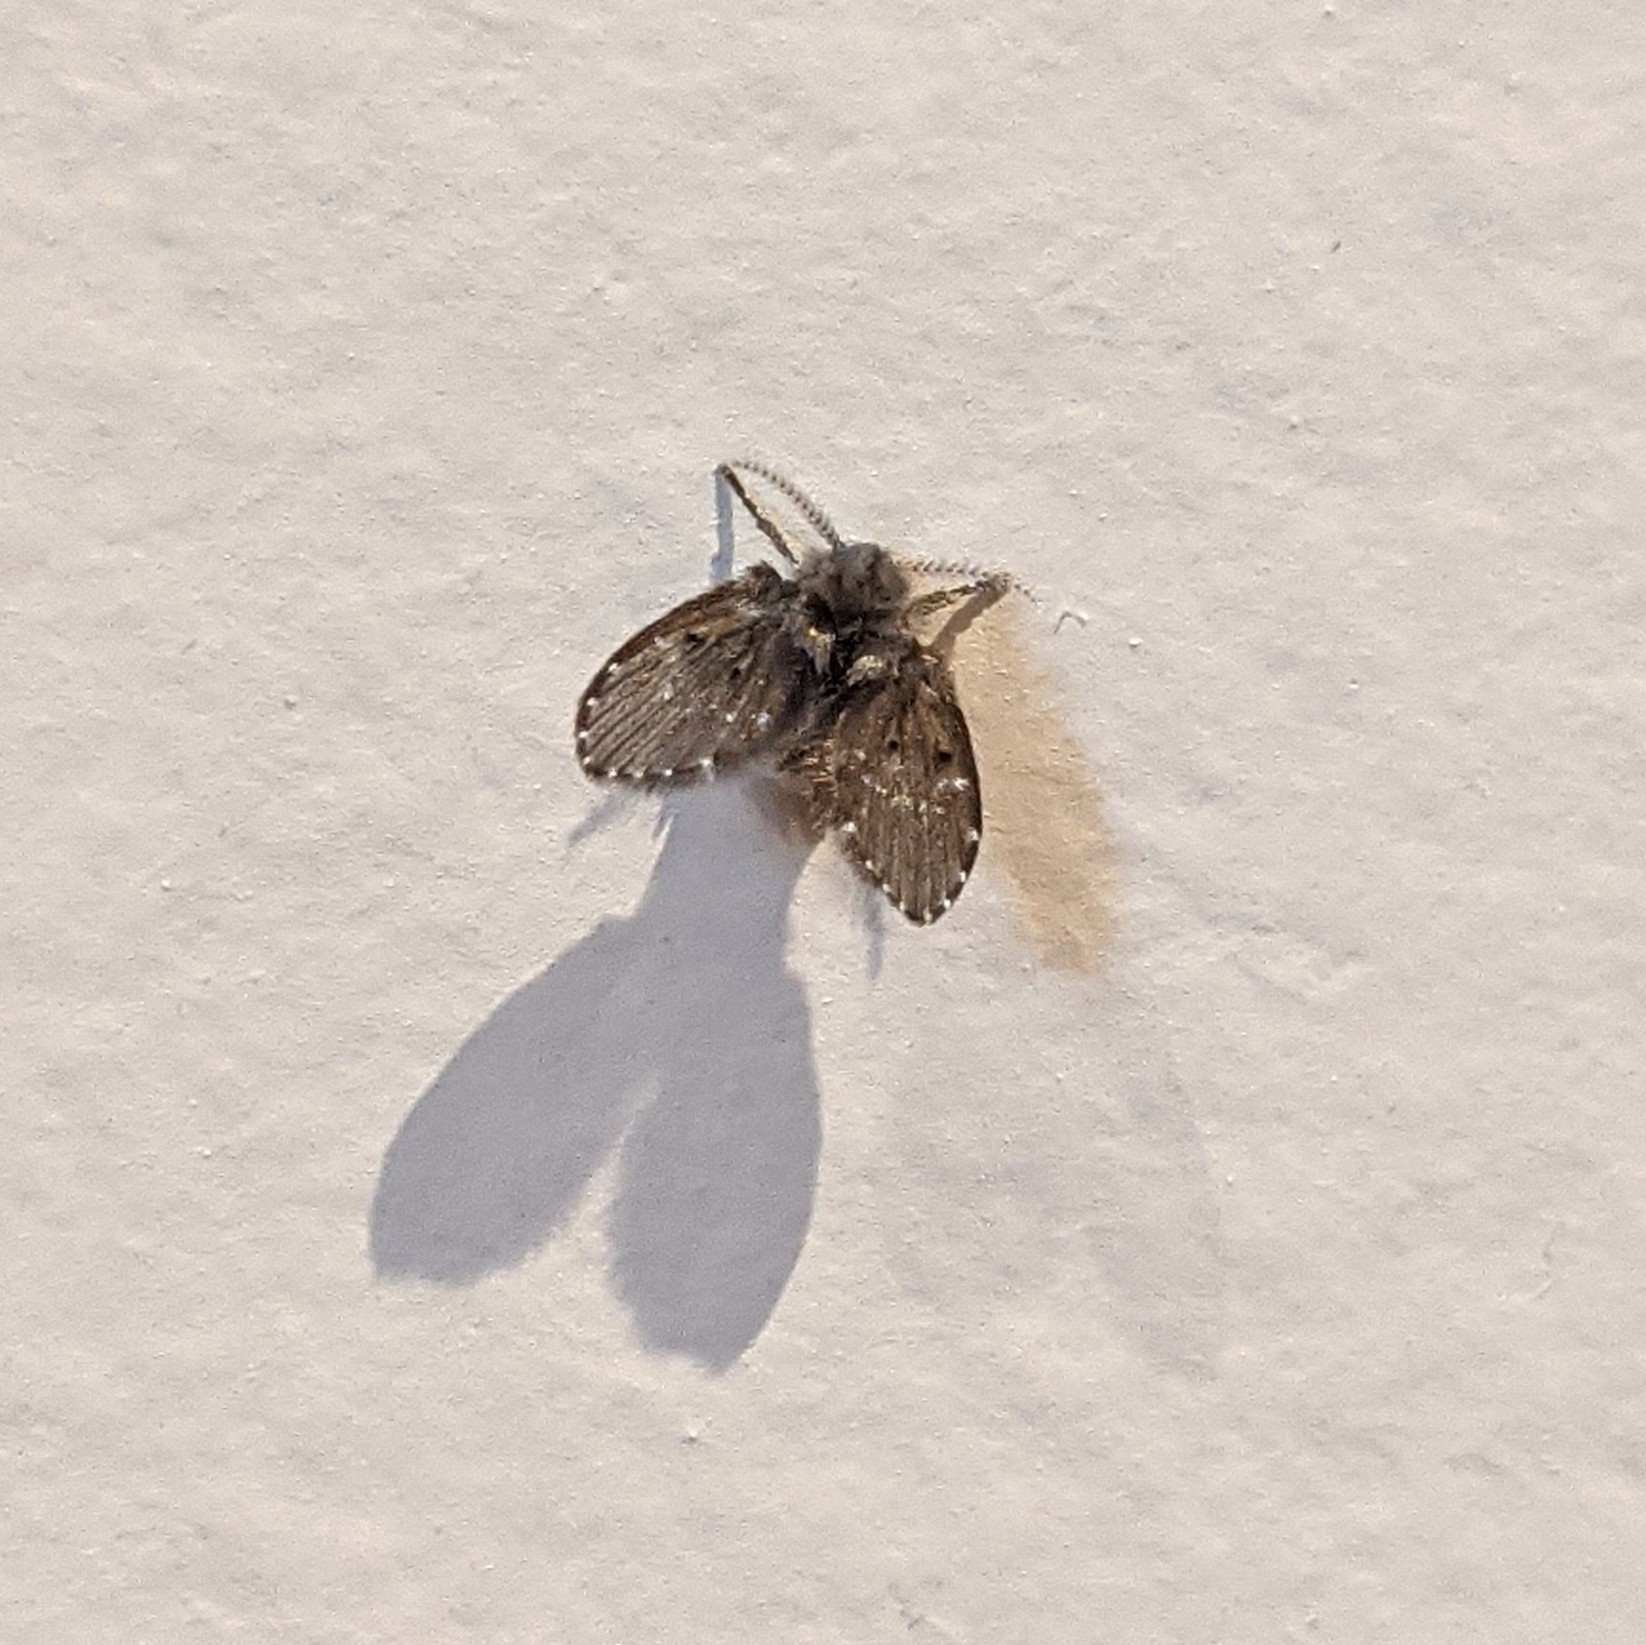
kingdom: Animalia
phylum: Arthropoda
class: Insecta
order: Diptera
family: Psychodidae
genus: Clogmia
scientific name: Clogmia albipunctatus
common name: White-spotted moth fly
